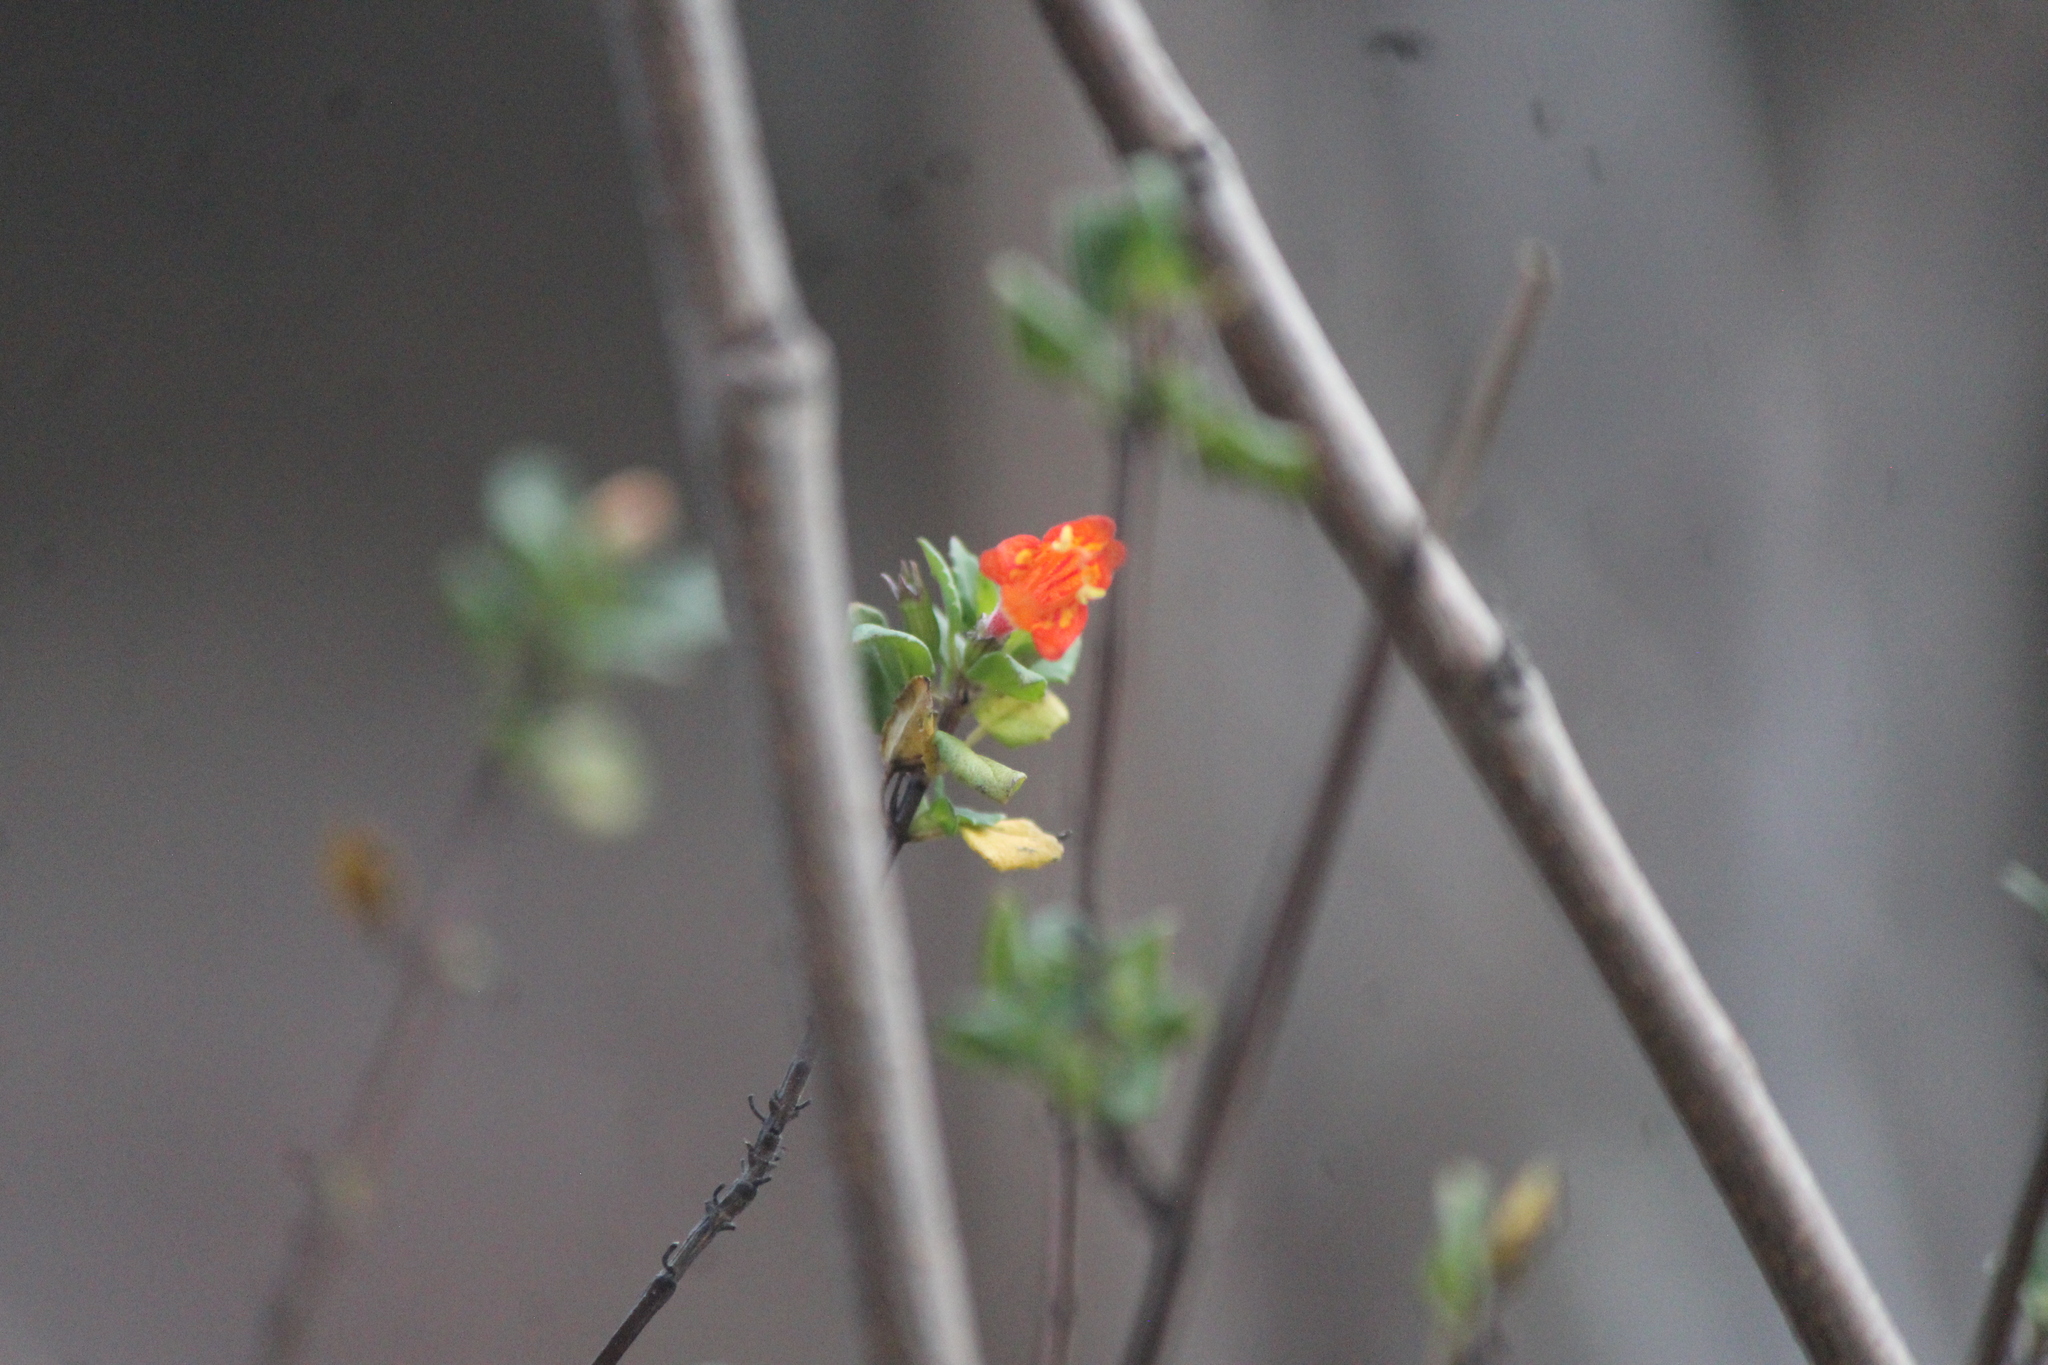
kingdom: Plantae
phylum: Tracheophyta
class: Magnoliopsida
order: Lamiales
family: Lamiaceae
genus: Clinopodium
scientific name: Clinopodium mexicanum
